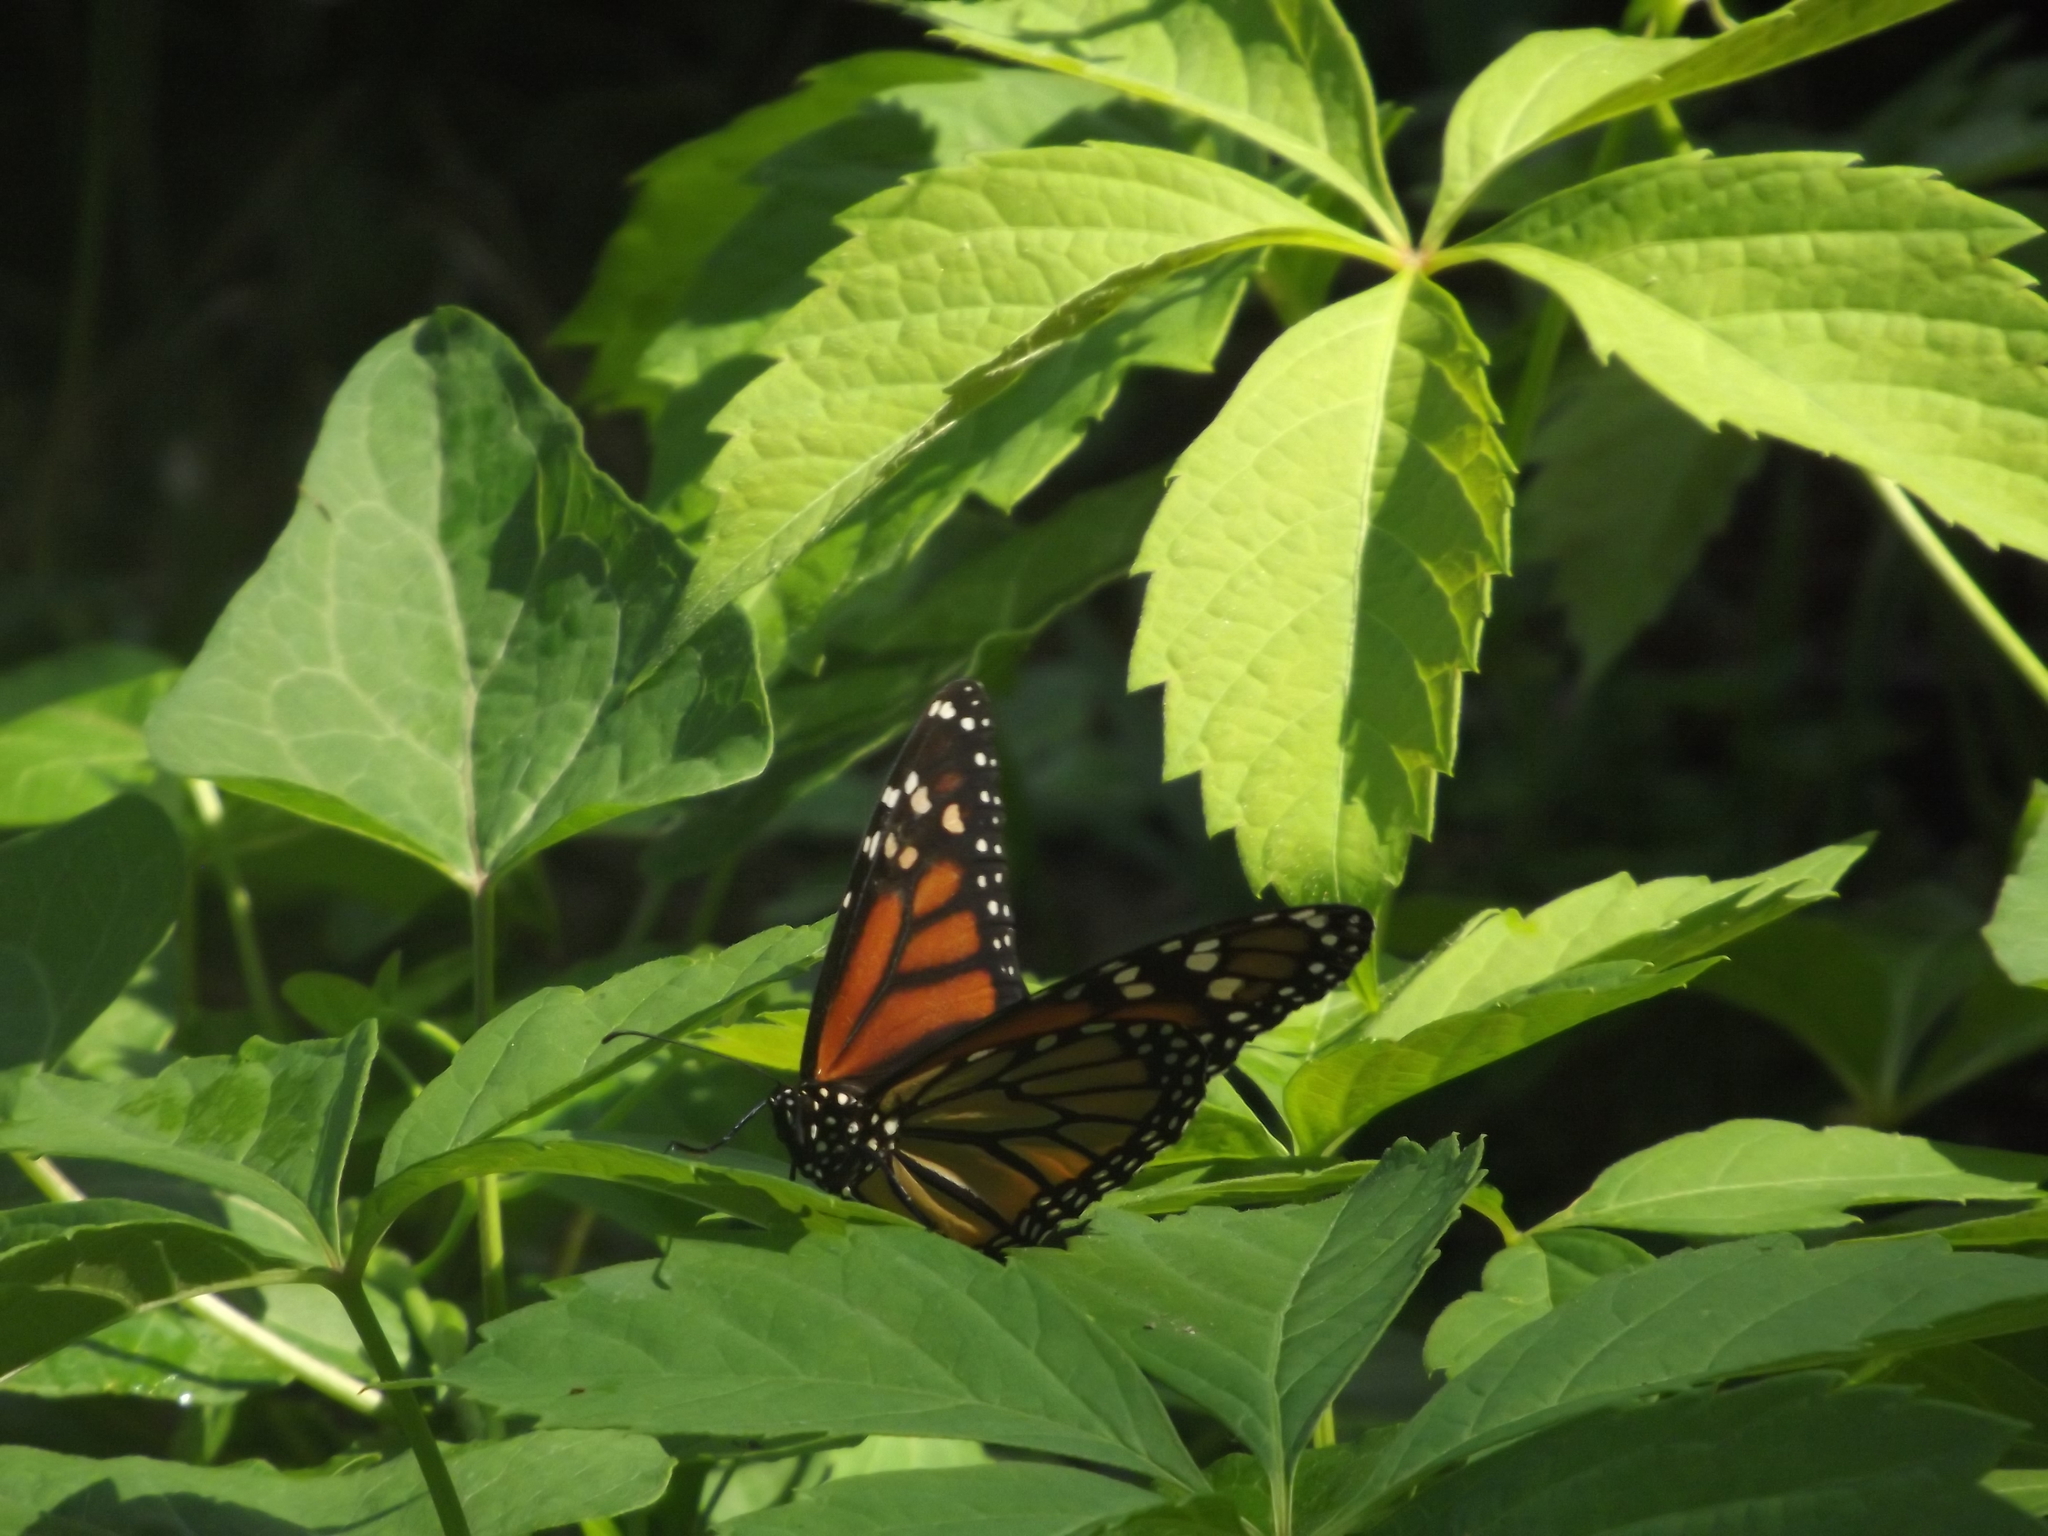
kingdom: Animalia
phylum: Arthropoda
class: Insecta
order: Lepidoptera
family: Nymphalidae
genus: Danaus
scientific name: Danaus plexippus
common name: Monarch
